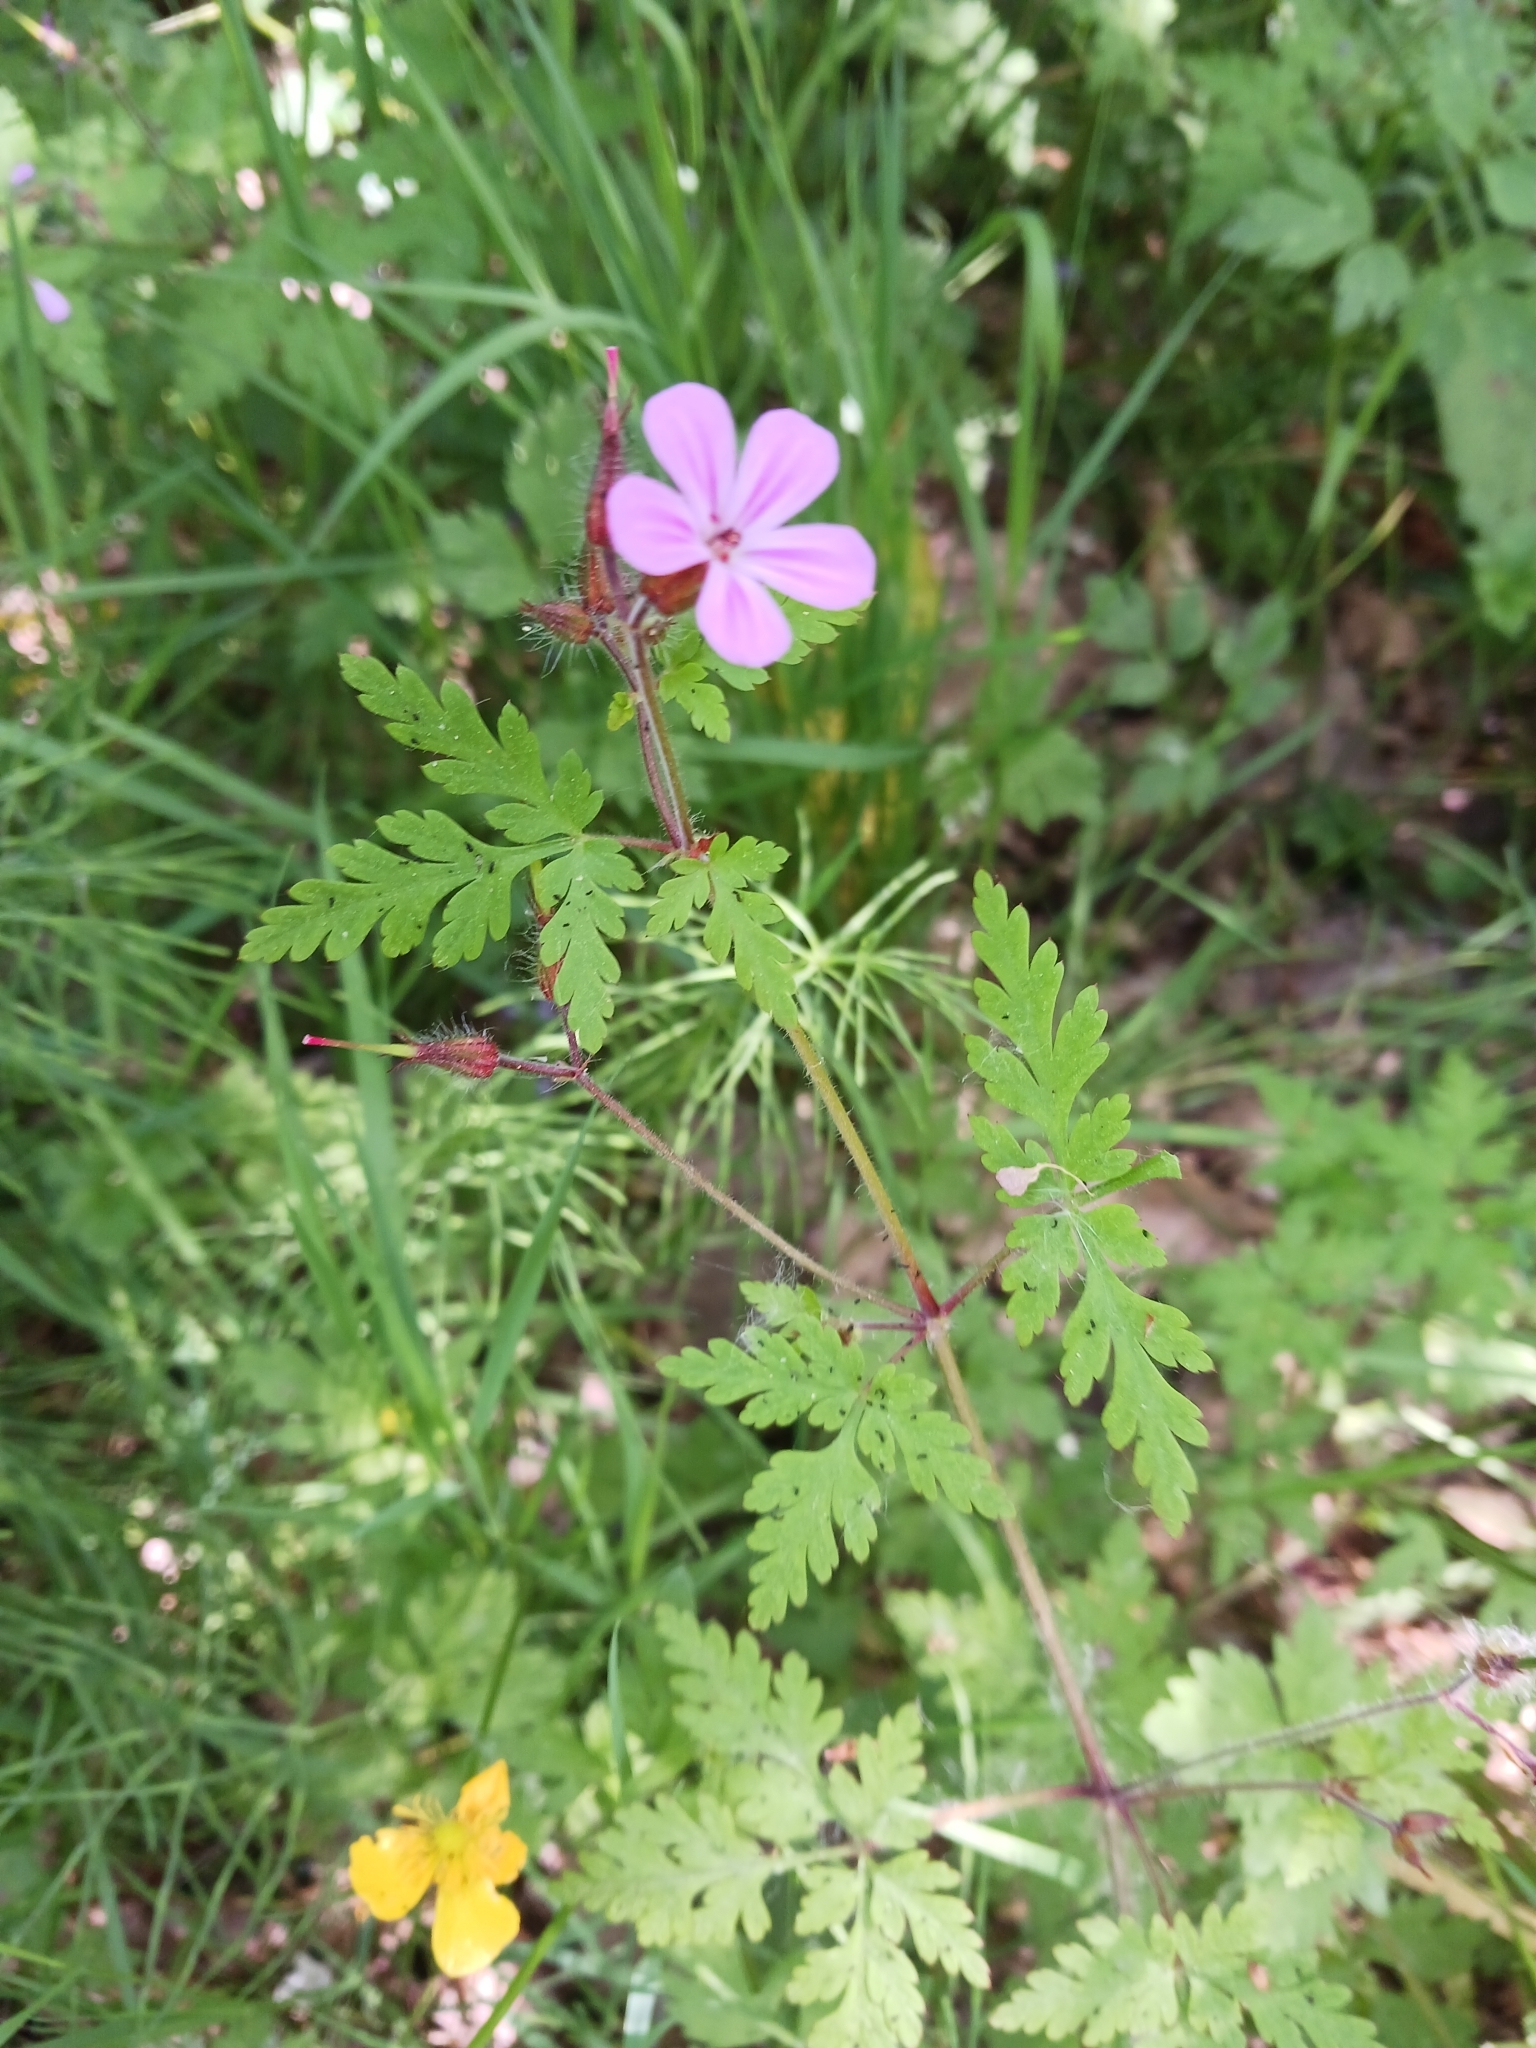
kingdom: Plantae
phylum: Tracheophyta
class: Magnoliopsida
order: Geraniales
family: Geraniaceae
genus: Geranium
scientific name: Geranium robertianum
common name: Herb-robert
